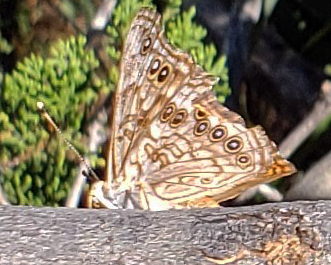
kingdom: Animalia
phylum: Arthropoda
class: Insecta
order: Lepidoptera
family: Nymphalidae
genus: Asterocampa
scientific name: Asterocampa celtis
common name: Hackberry emperor
